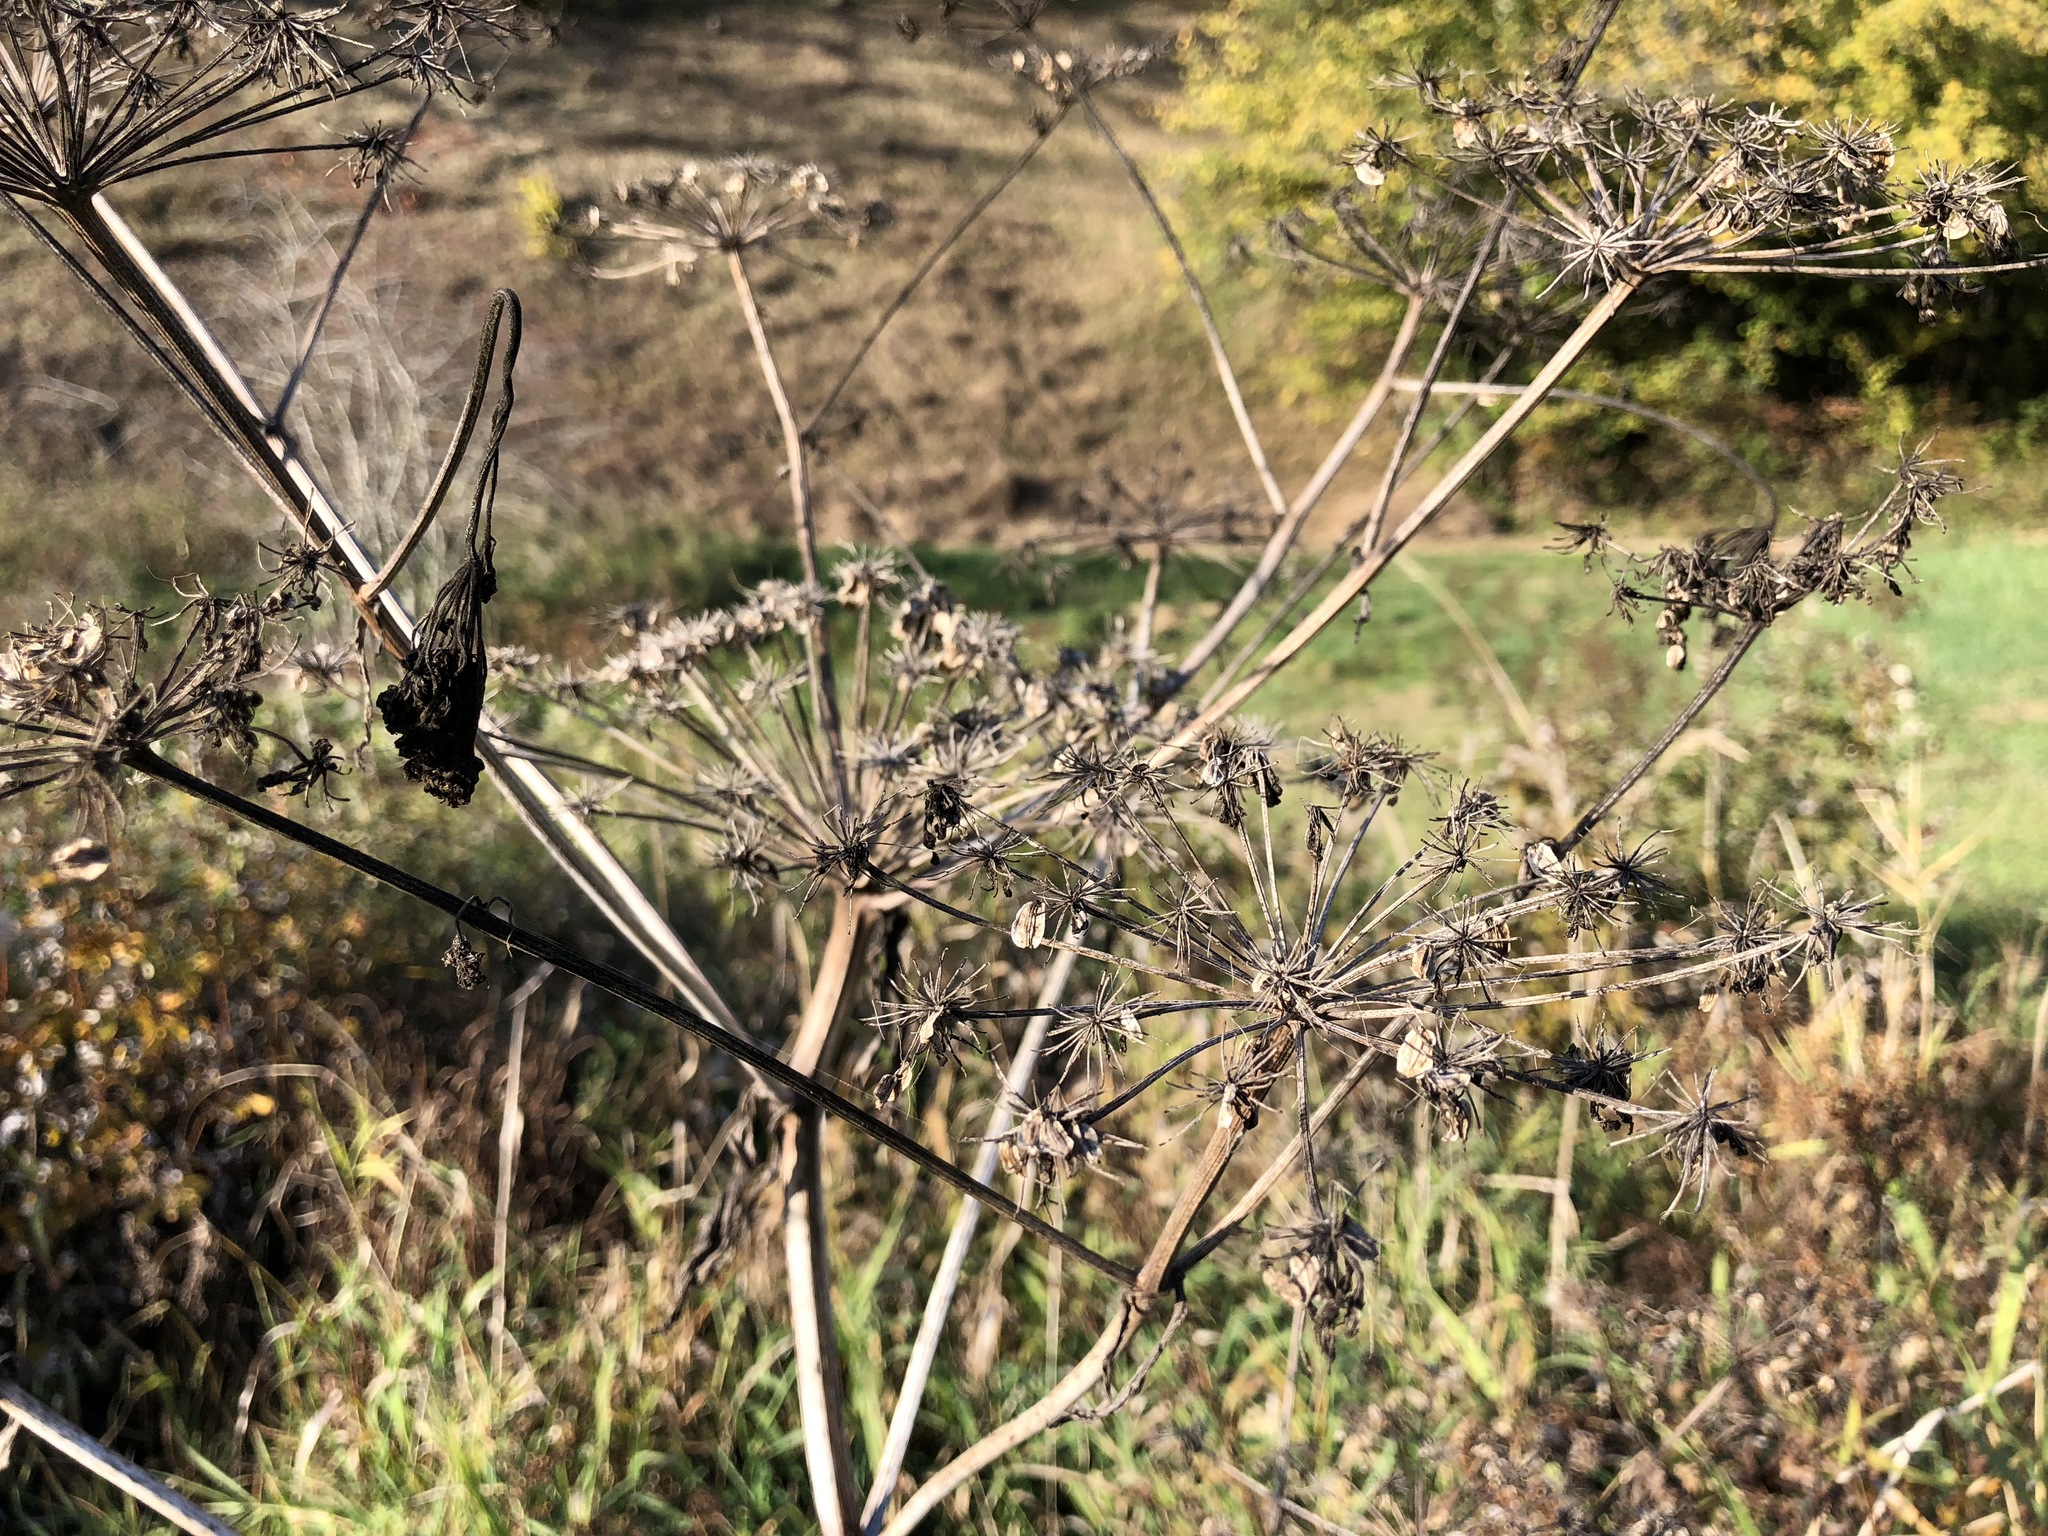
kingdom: Plantae
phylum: Tracheophyta
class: Magnoliopsida
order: Apiales
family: Apiaceae
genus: Angelica
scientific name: Angelica sylvestris
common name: Wild angelica
